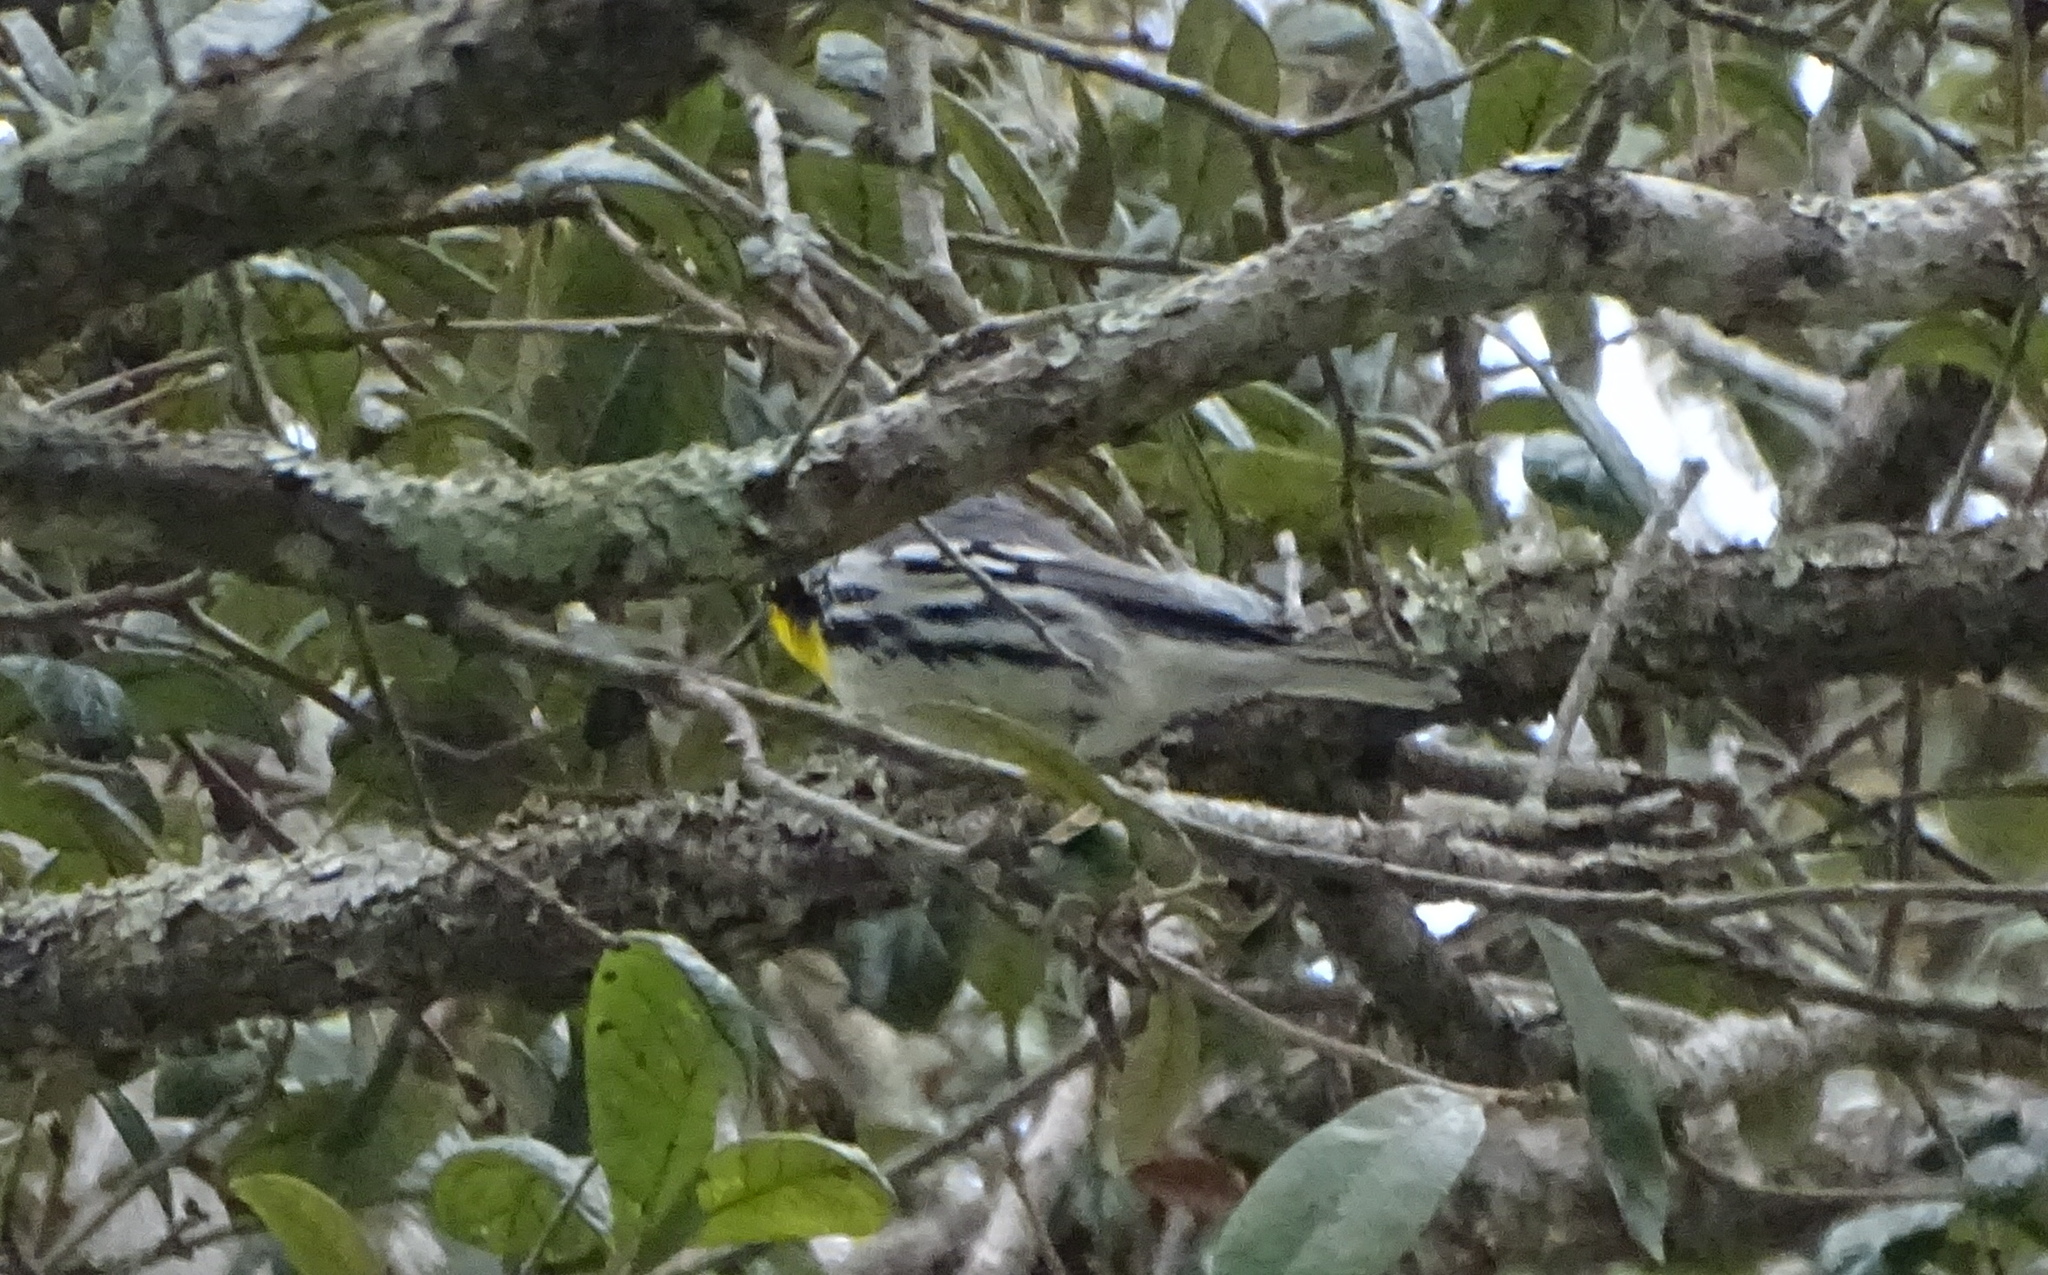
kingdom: Animalia
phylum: Chordata
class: Aves
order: Passeriformes
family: Parulidae
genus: Setophaga
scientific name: Setophaga dominica
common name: Yellow-throated warbler
